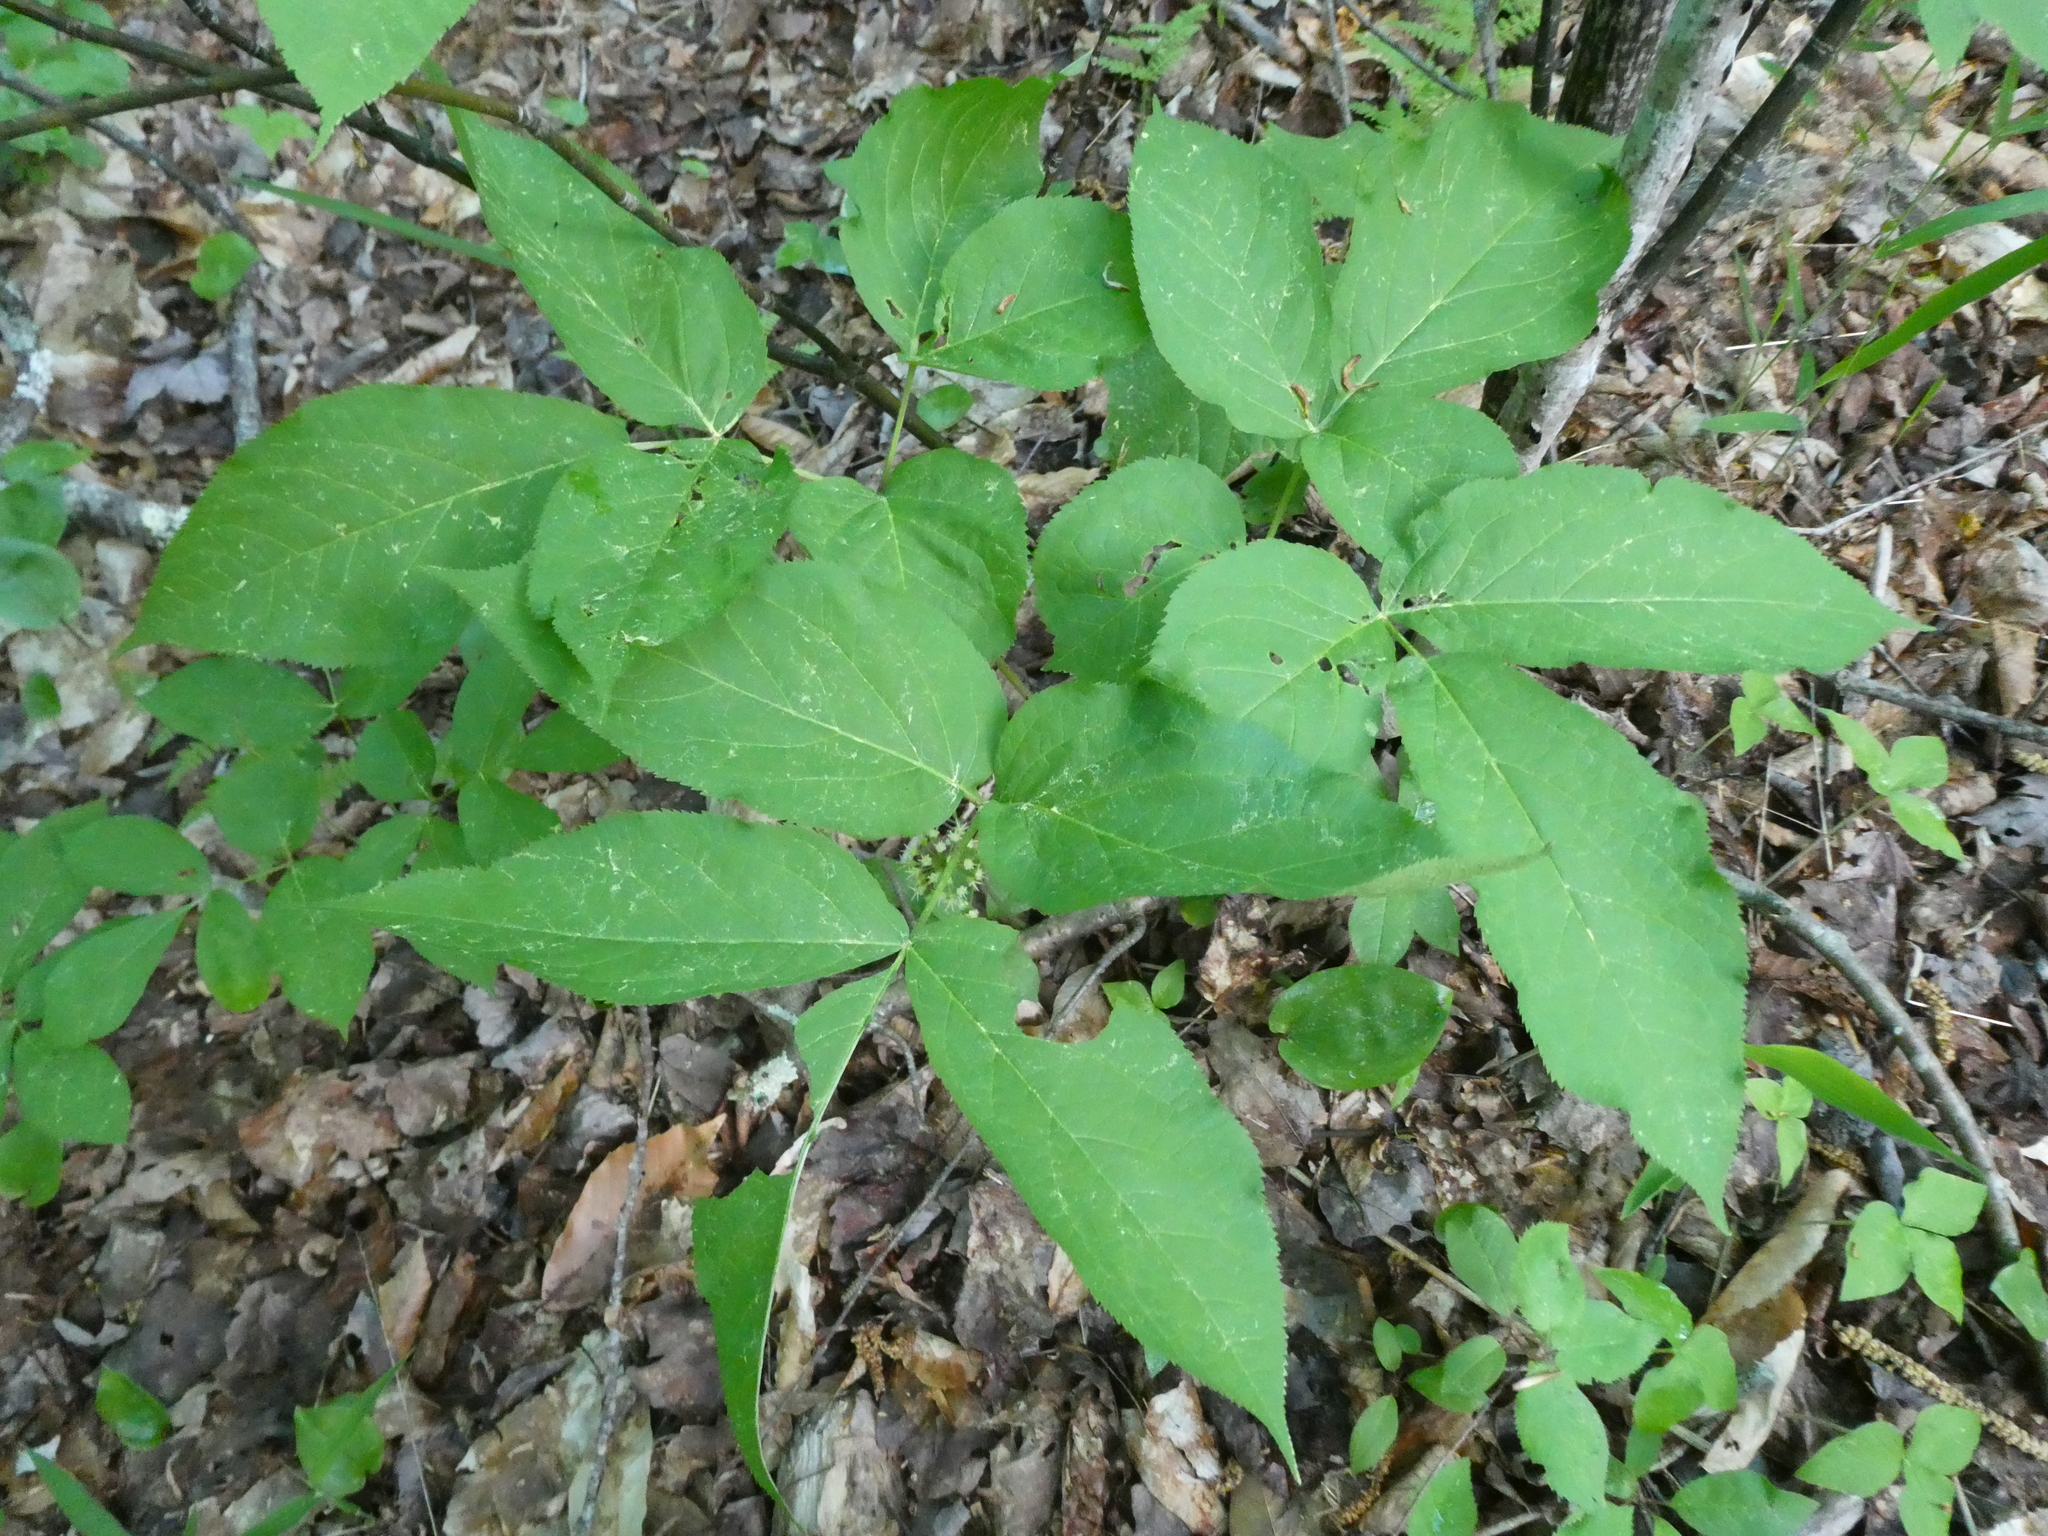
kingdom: Plantae
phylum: Tracheophyta
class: Magnoliopsida
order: Apiales
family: Araliaceae
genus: Aralia
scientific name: Aralia nudicaulis
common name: Wild sarsaparilla
